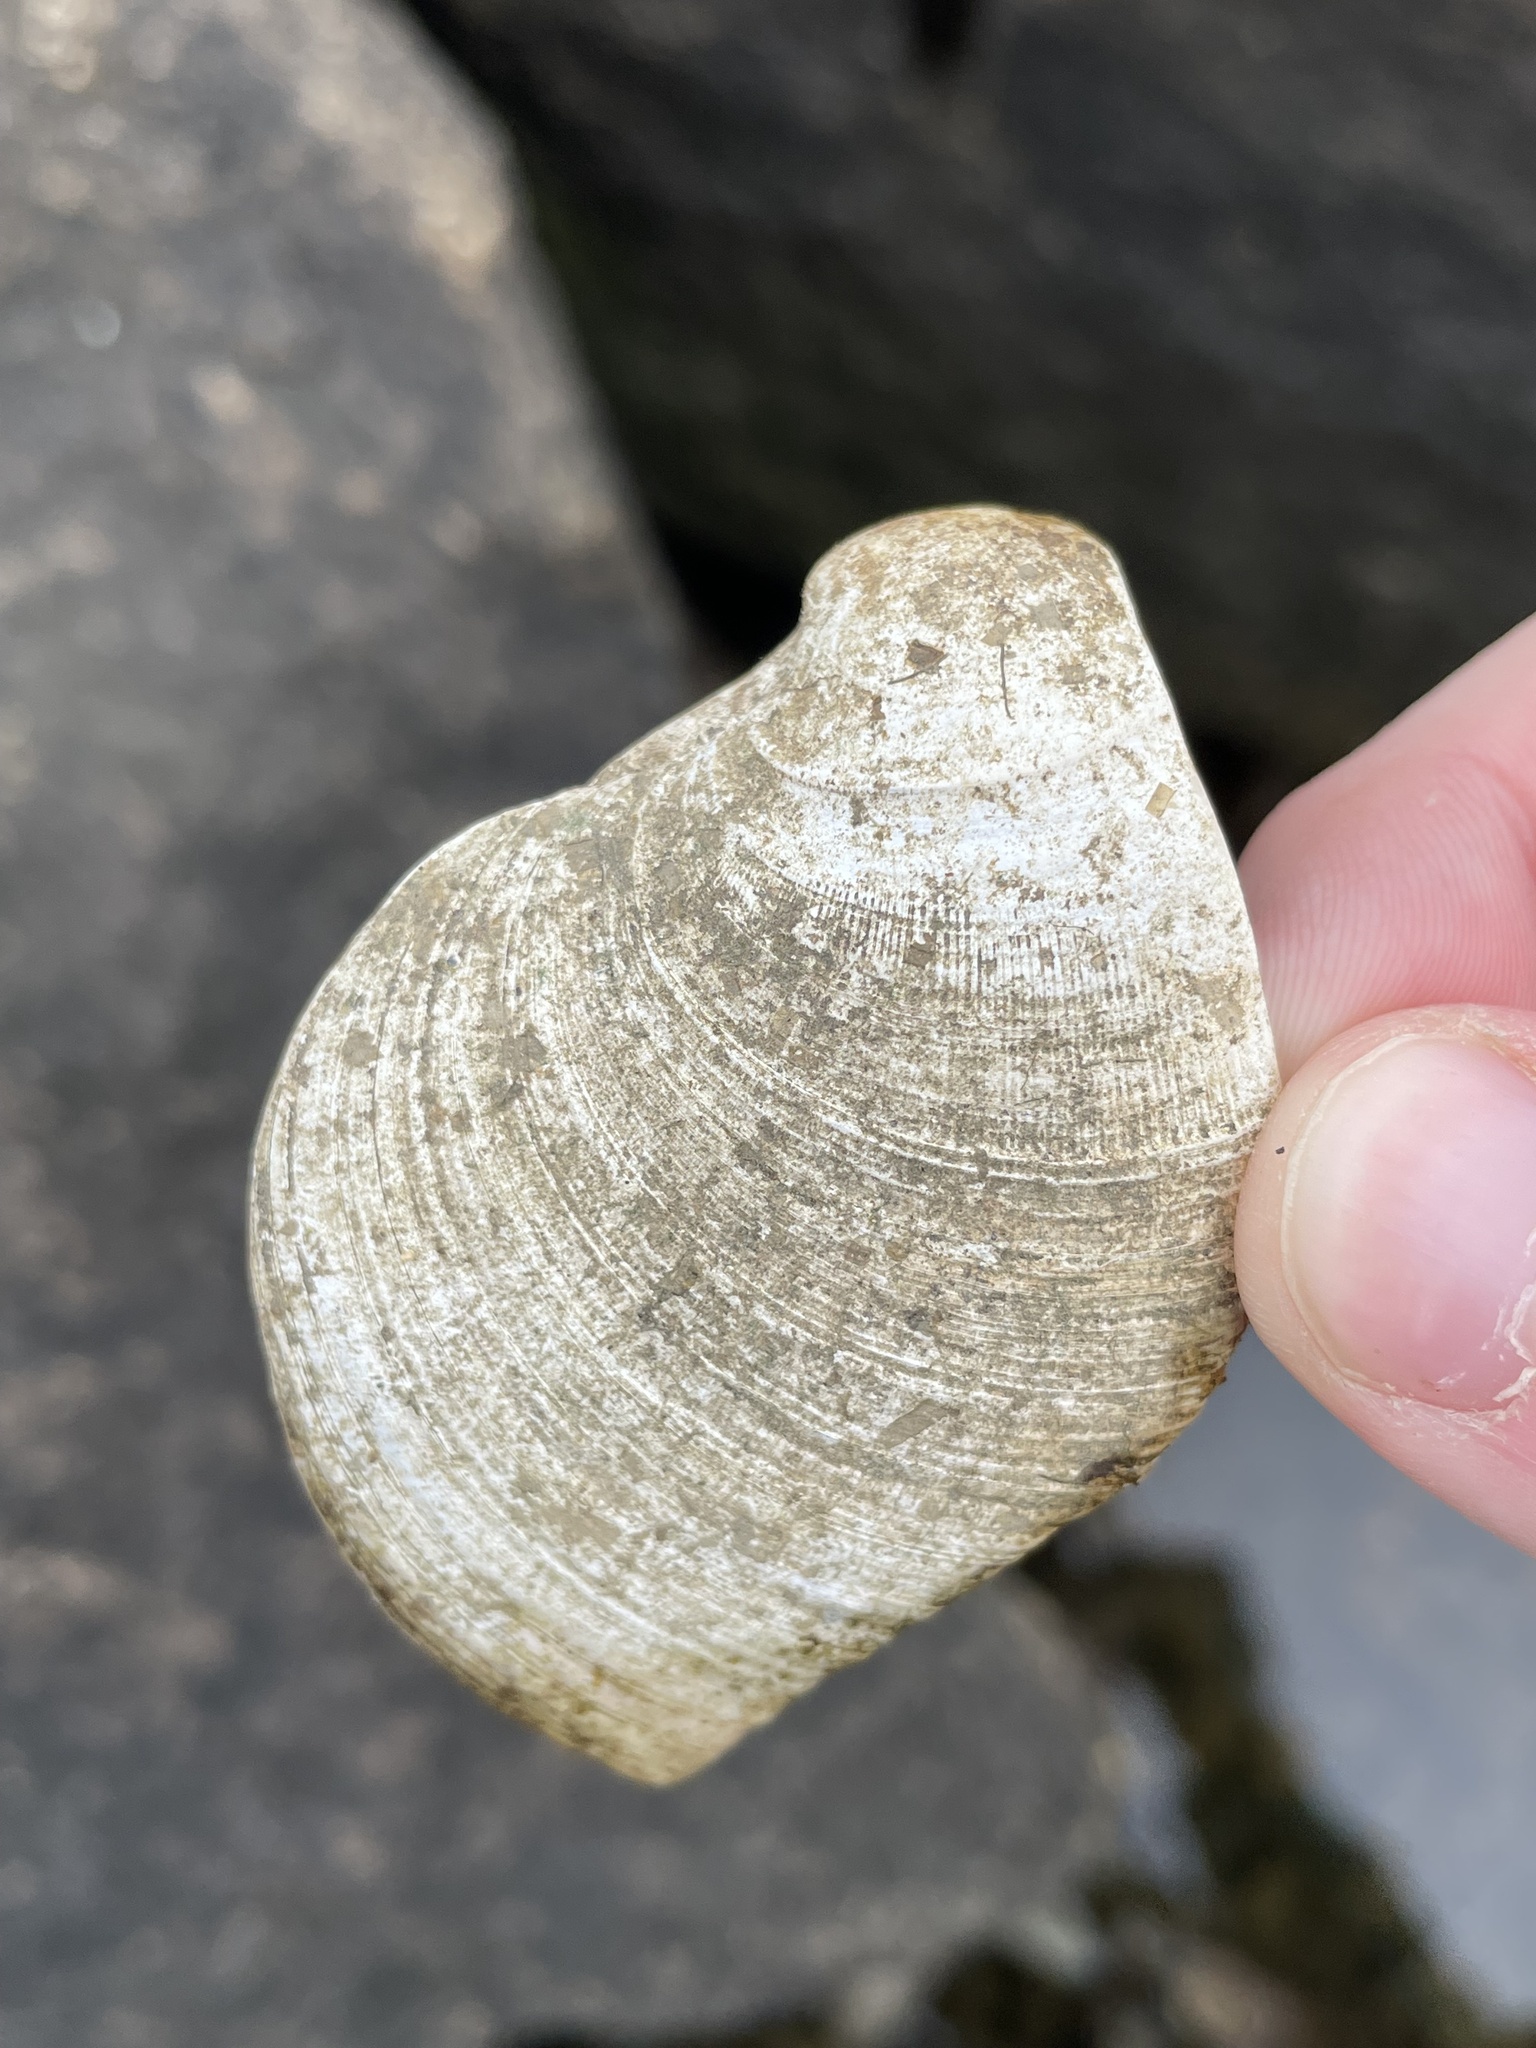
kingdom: Animalia
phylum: Mollusca
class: Bivalvia
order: Venerida
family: Veneridae
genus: Mercenaria
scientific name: Mercenaria mercenaria
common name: American hard-shelled clam
